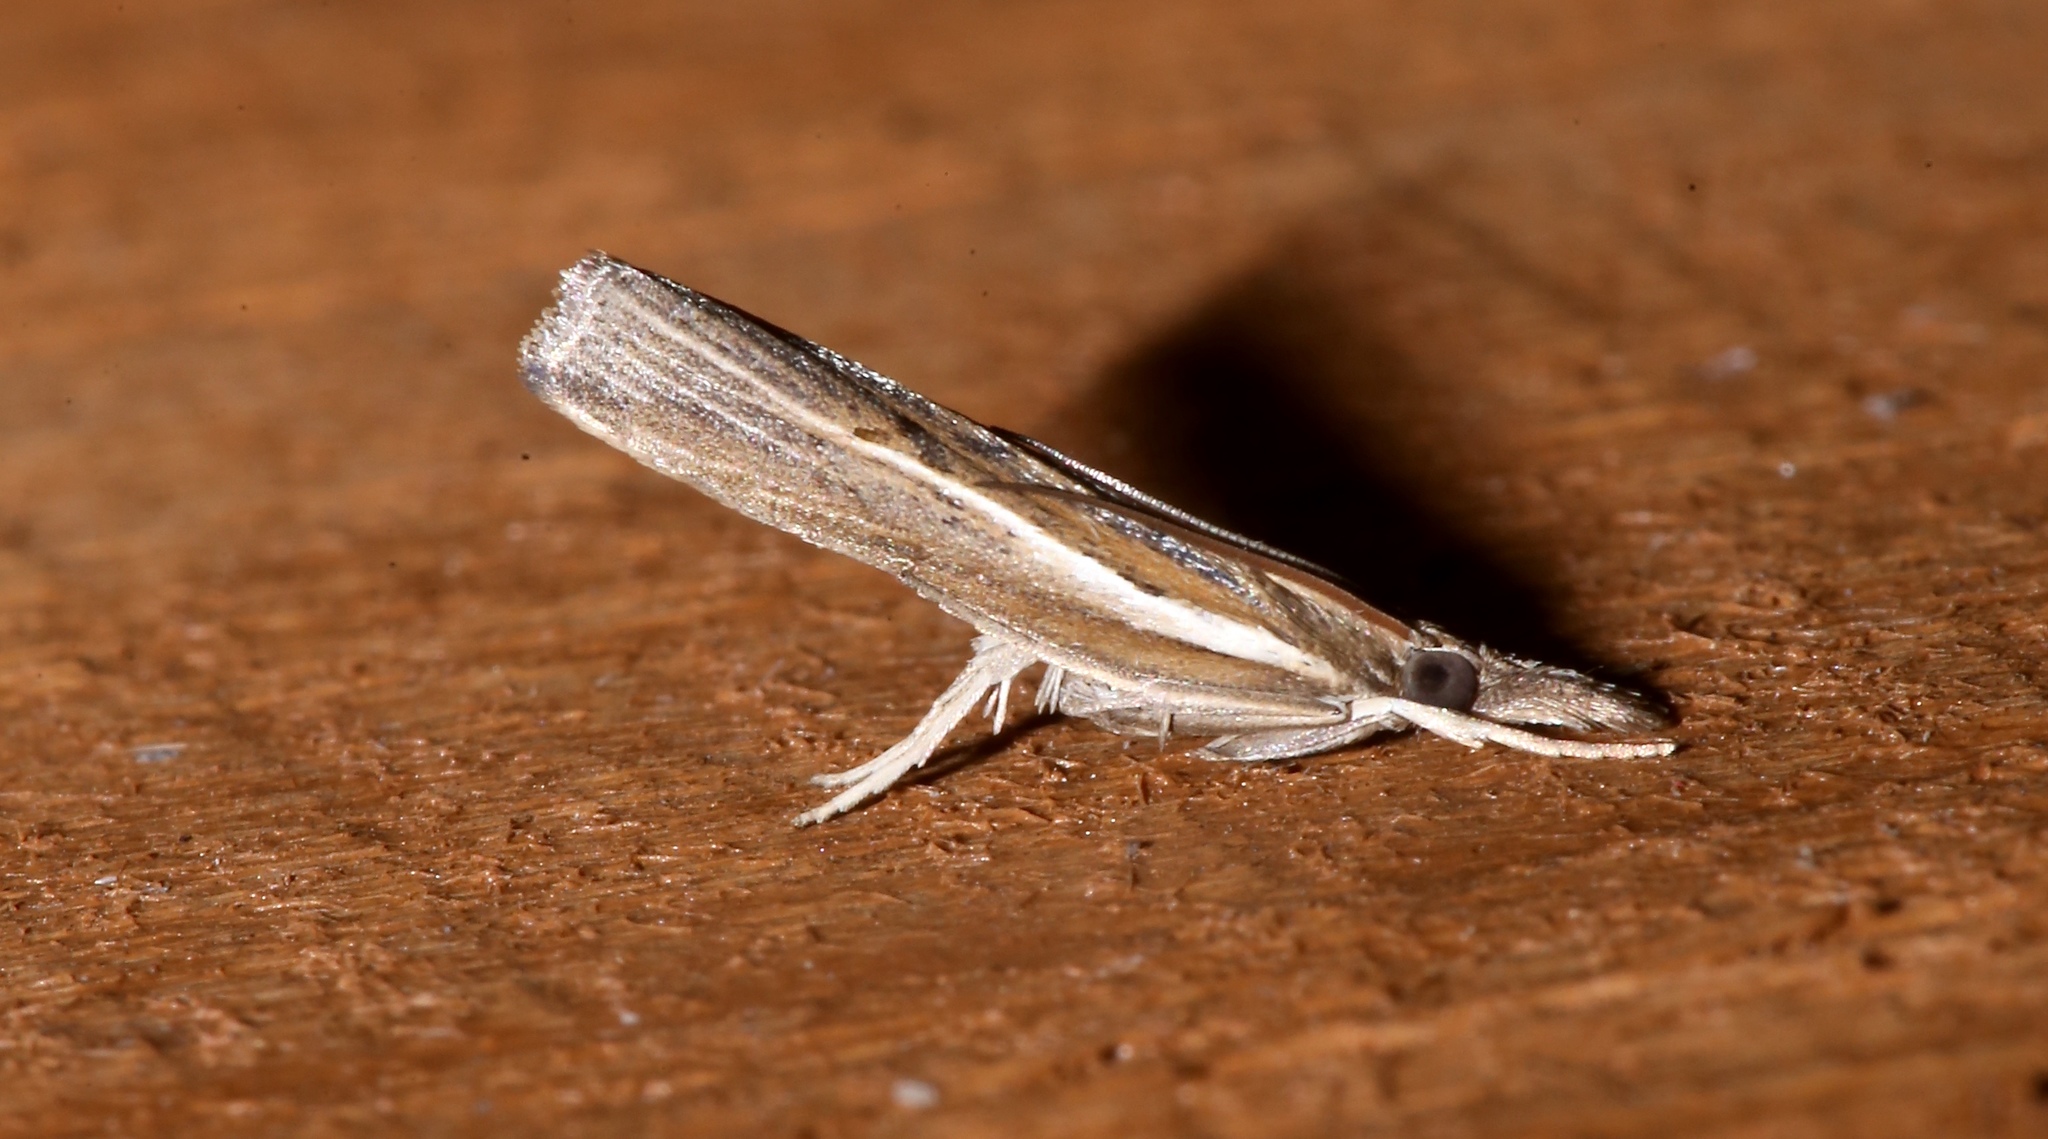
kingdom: Animalia
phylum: Arthropoda
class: Insecta
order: Lepidoptera
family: Crambidae
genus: Fissicrambus
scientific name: Fissicrambus fissiradiellus
